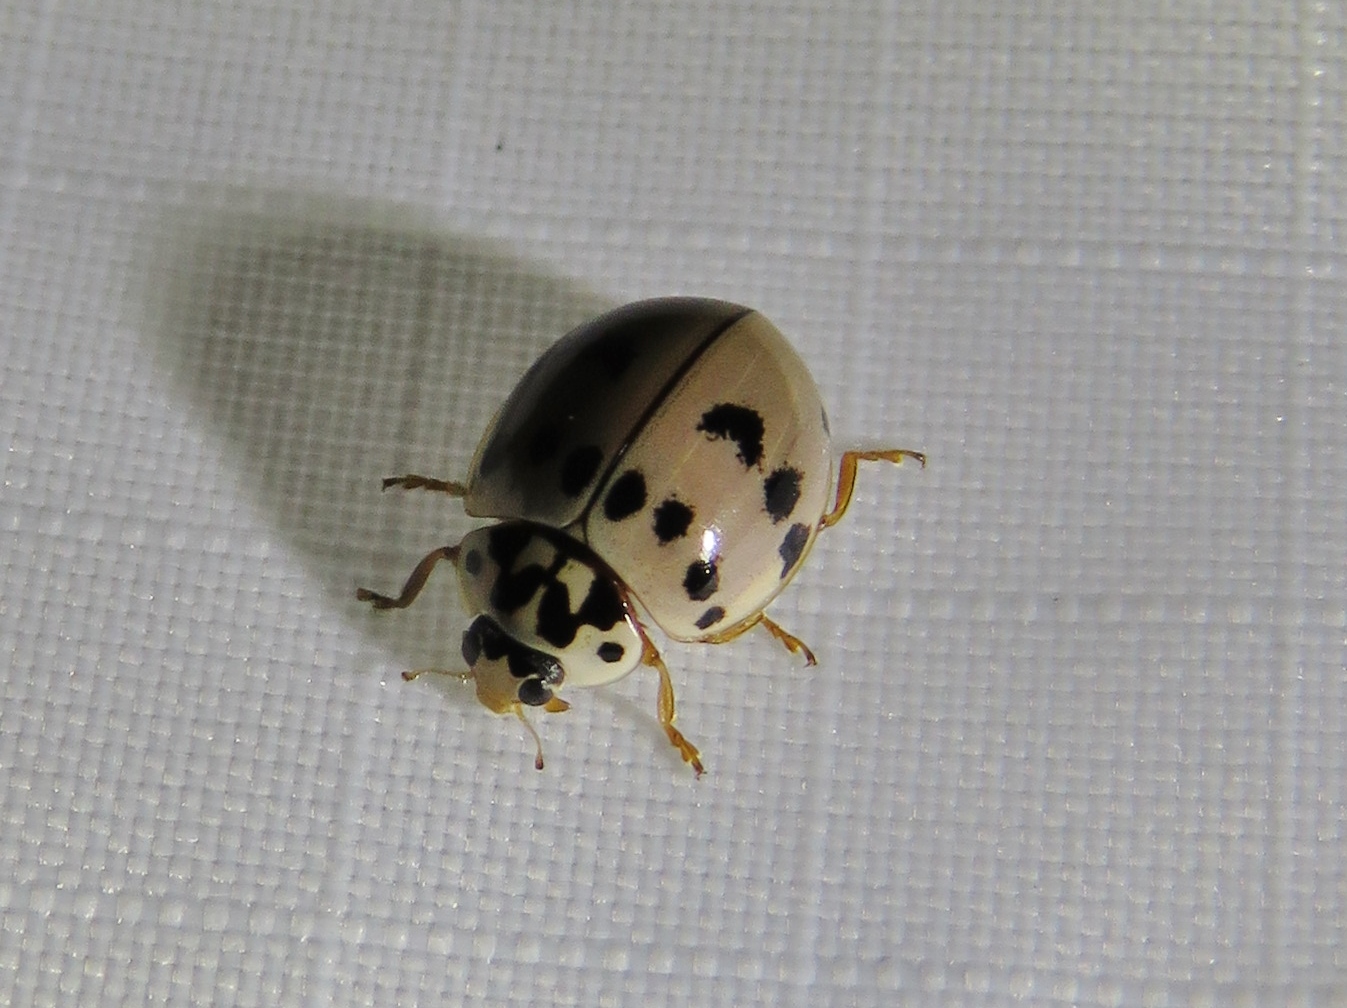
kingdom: Animalia
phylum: Arthropoda
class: Insecta
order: Coleoptera
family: Coccinellidae
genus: Olla
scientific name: Olla v-nigrum
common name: Ashy gray lady beetle
